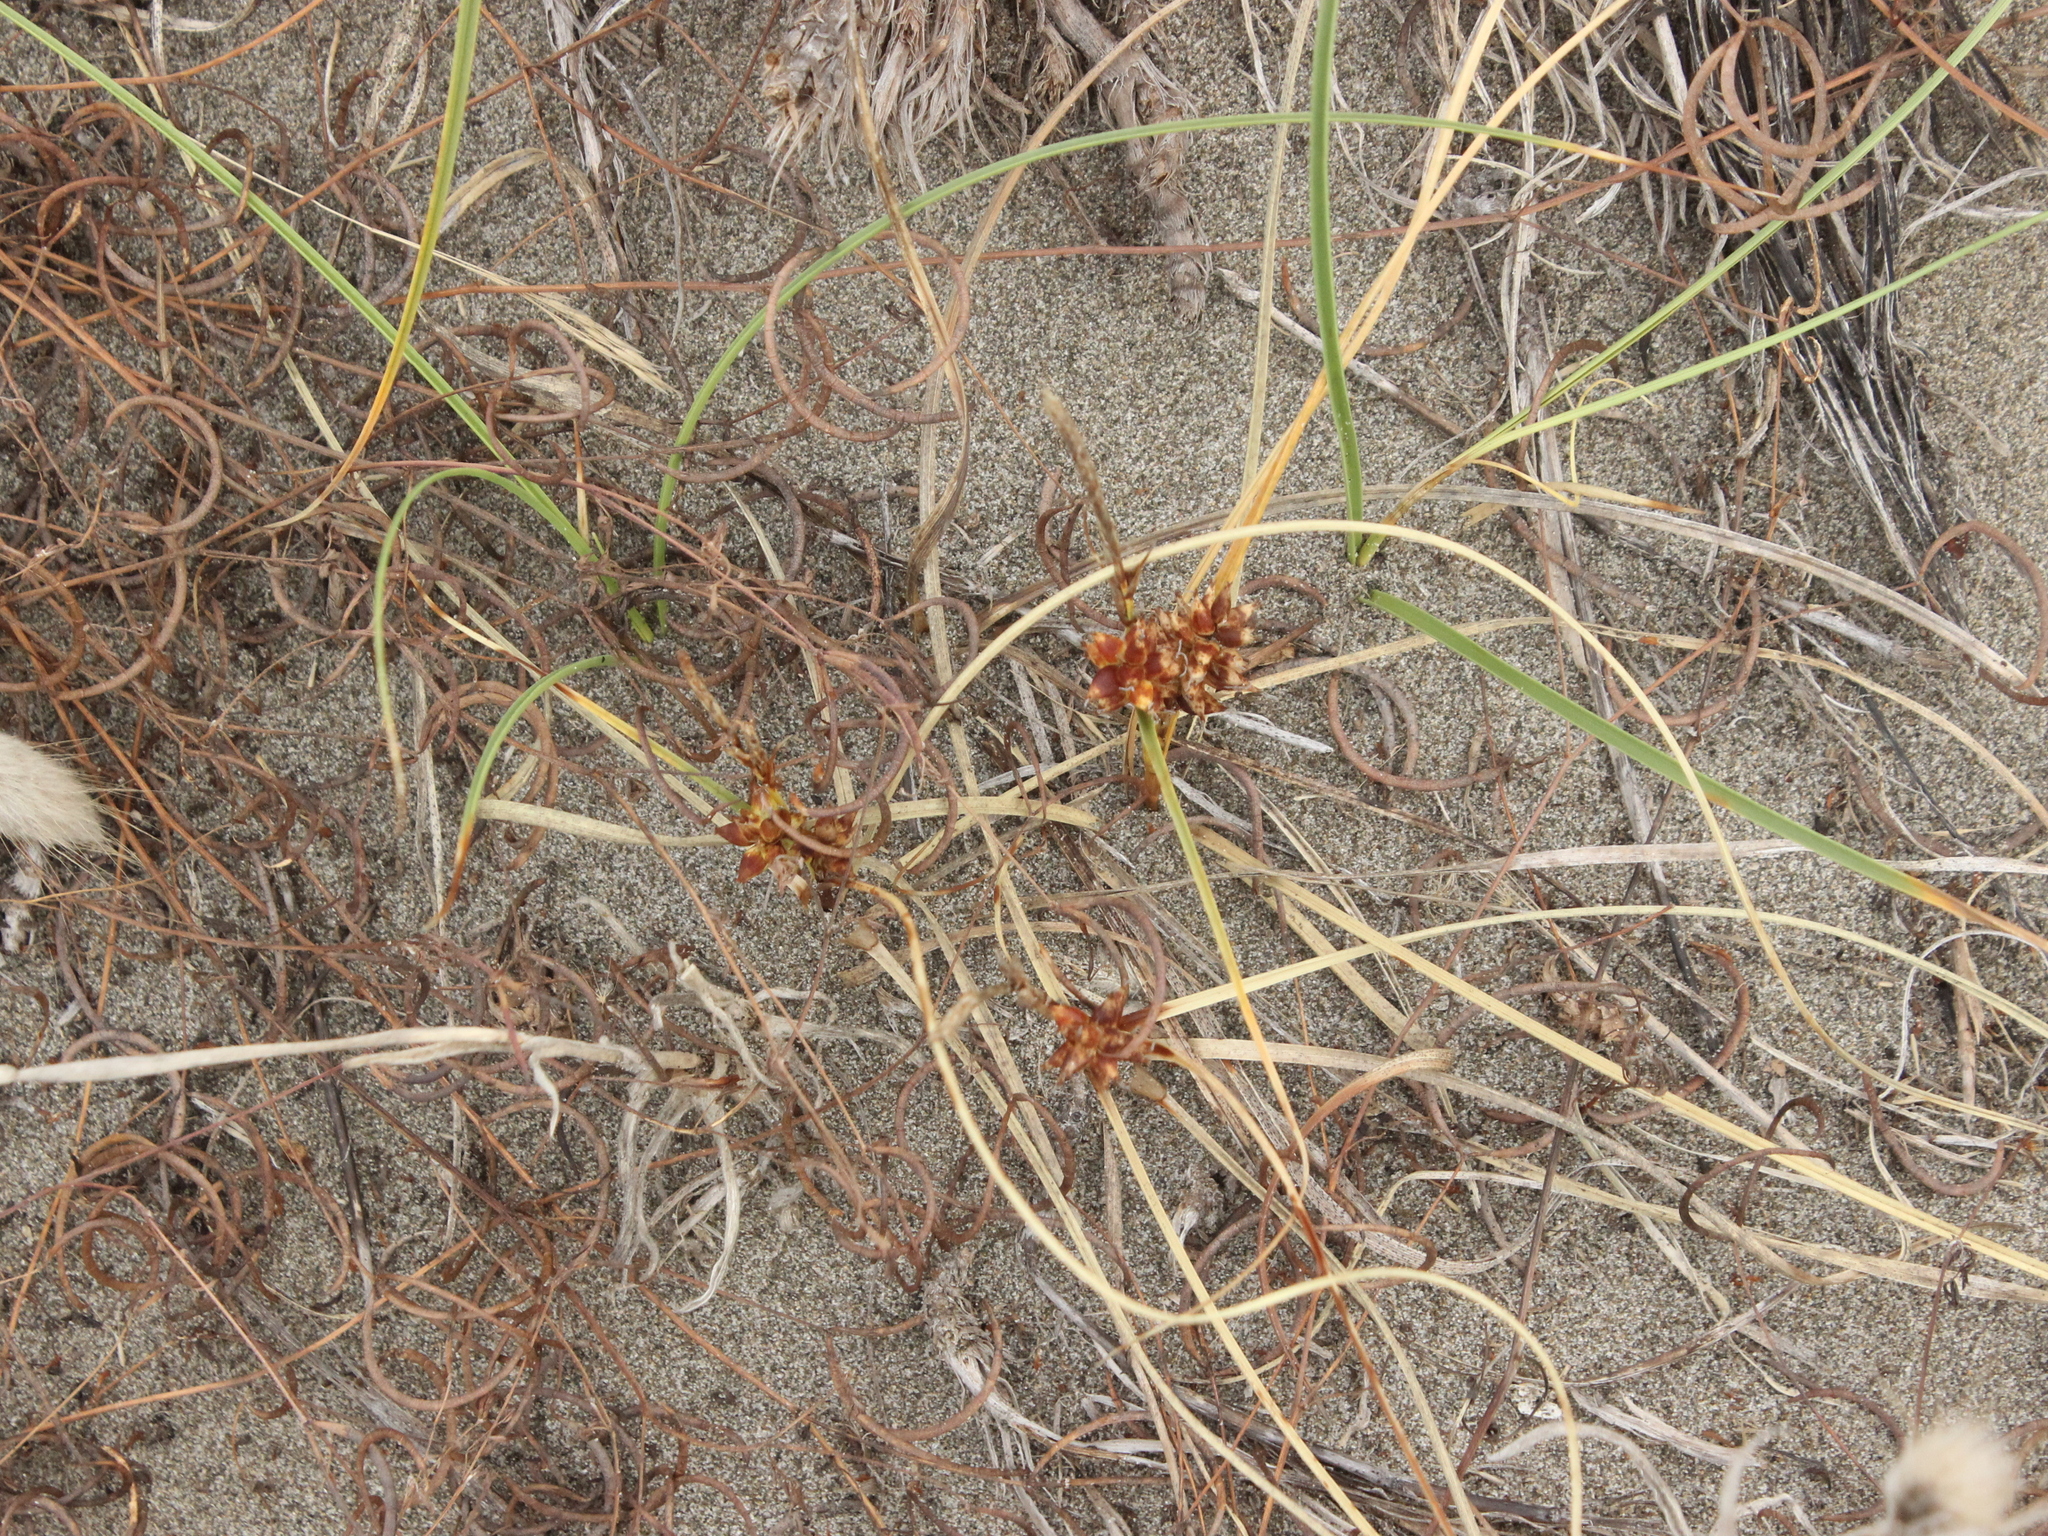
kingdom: Plantae
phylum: Tracheophyta
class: Liliopsida
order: Poales
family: Cyperaceae
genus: Carex
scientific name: Carex pumila
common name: Dwarf sedge
